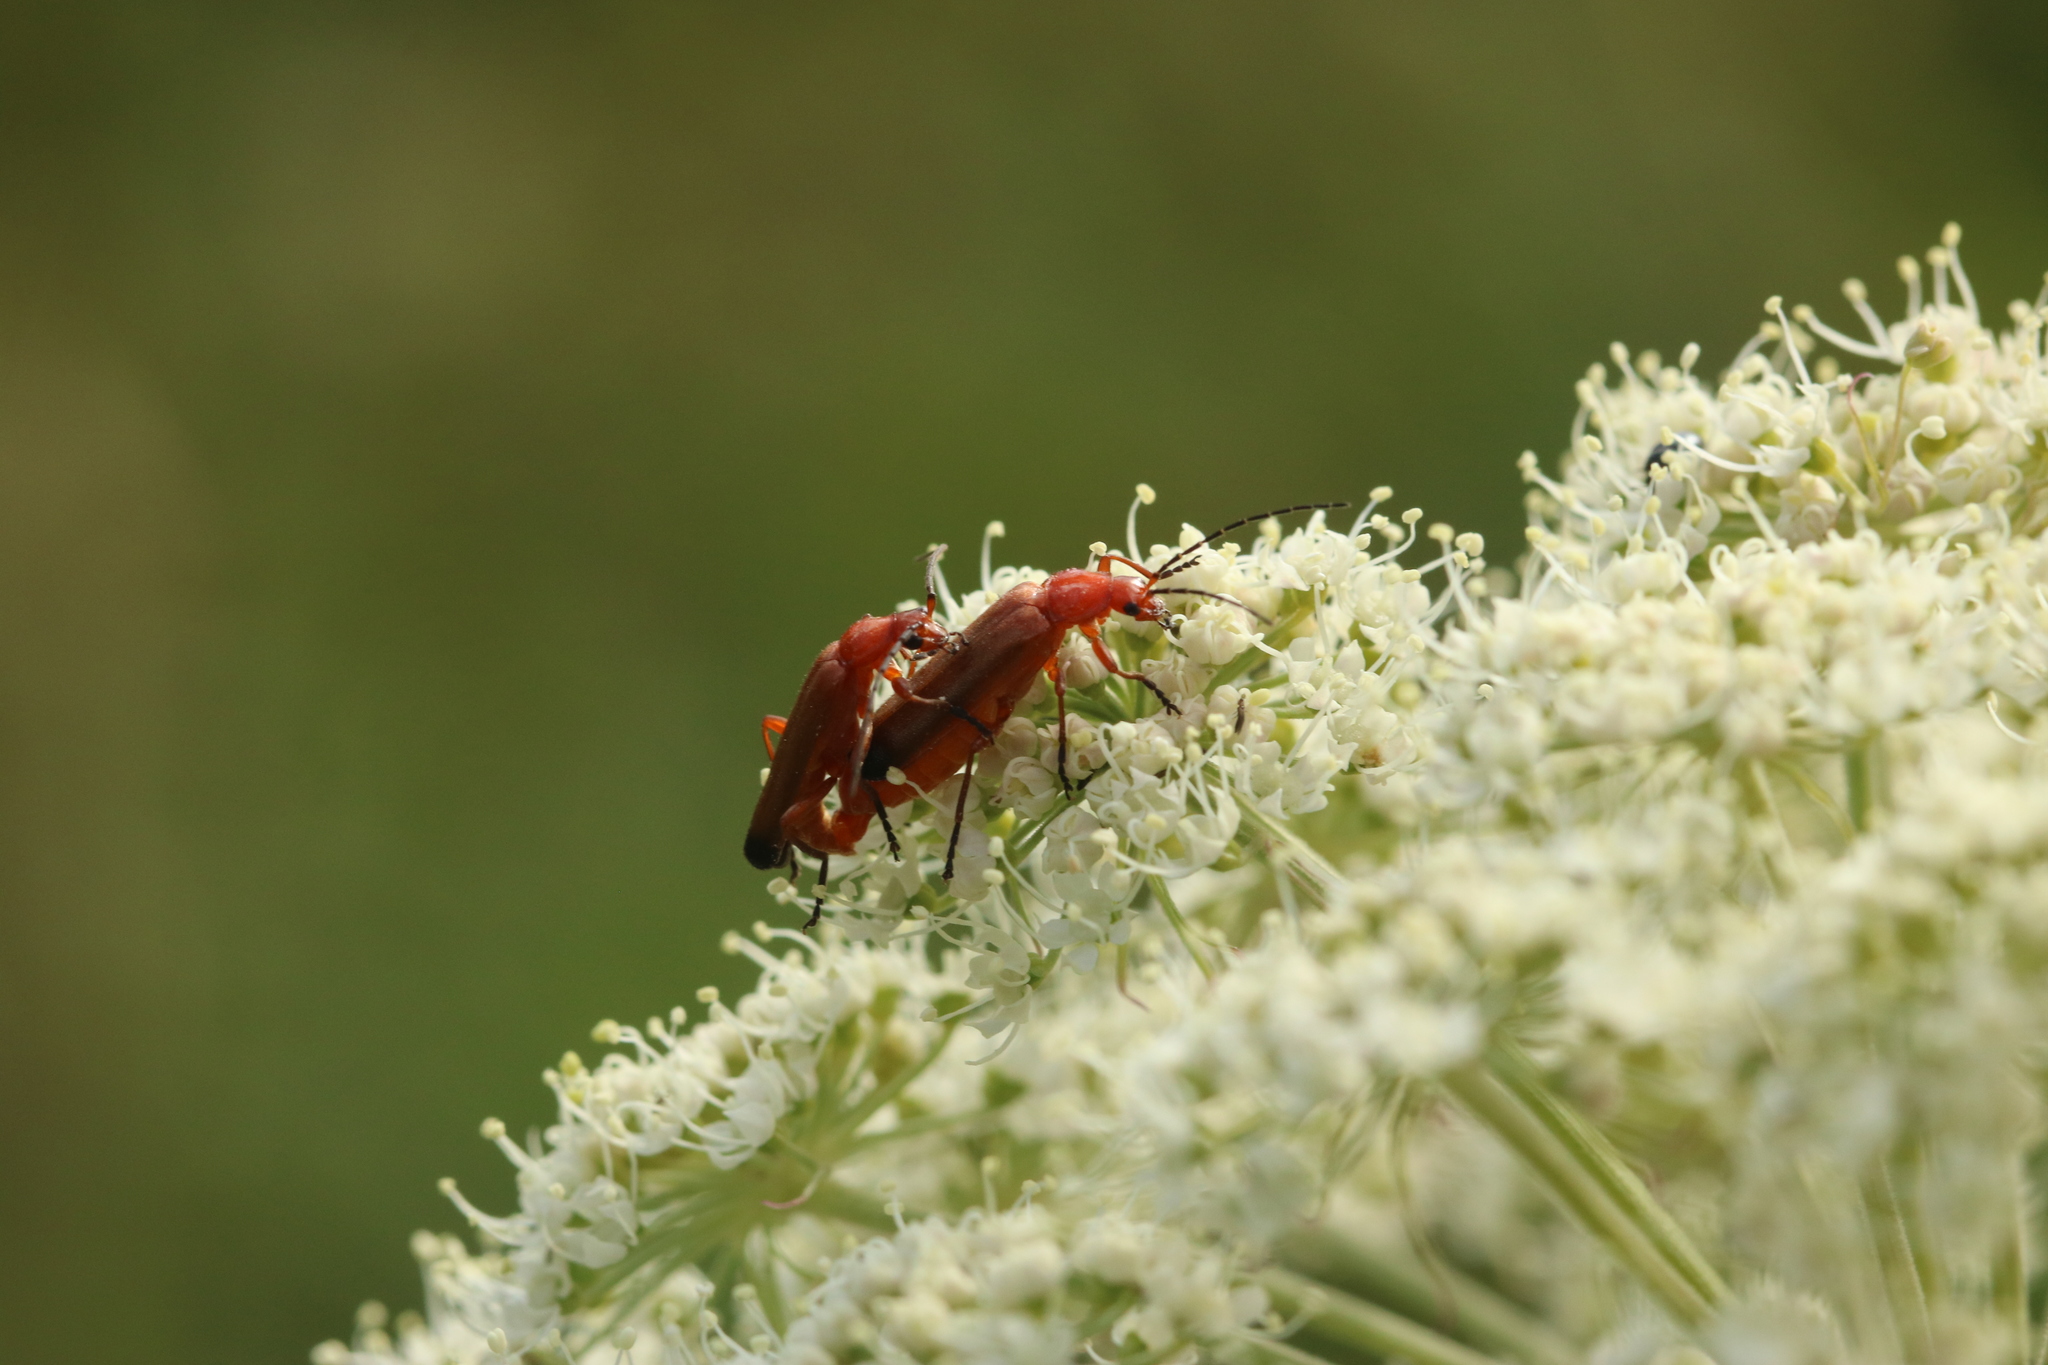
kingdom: Animalia
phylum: Arthropoda
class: Insecta
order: Coleoptera
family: Cantharidae
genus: Rhagonycha
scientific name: Rhagonycha fulva
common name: Common red soldier beetle
